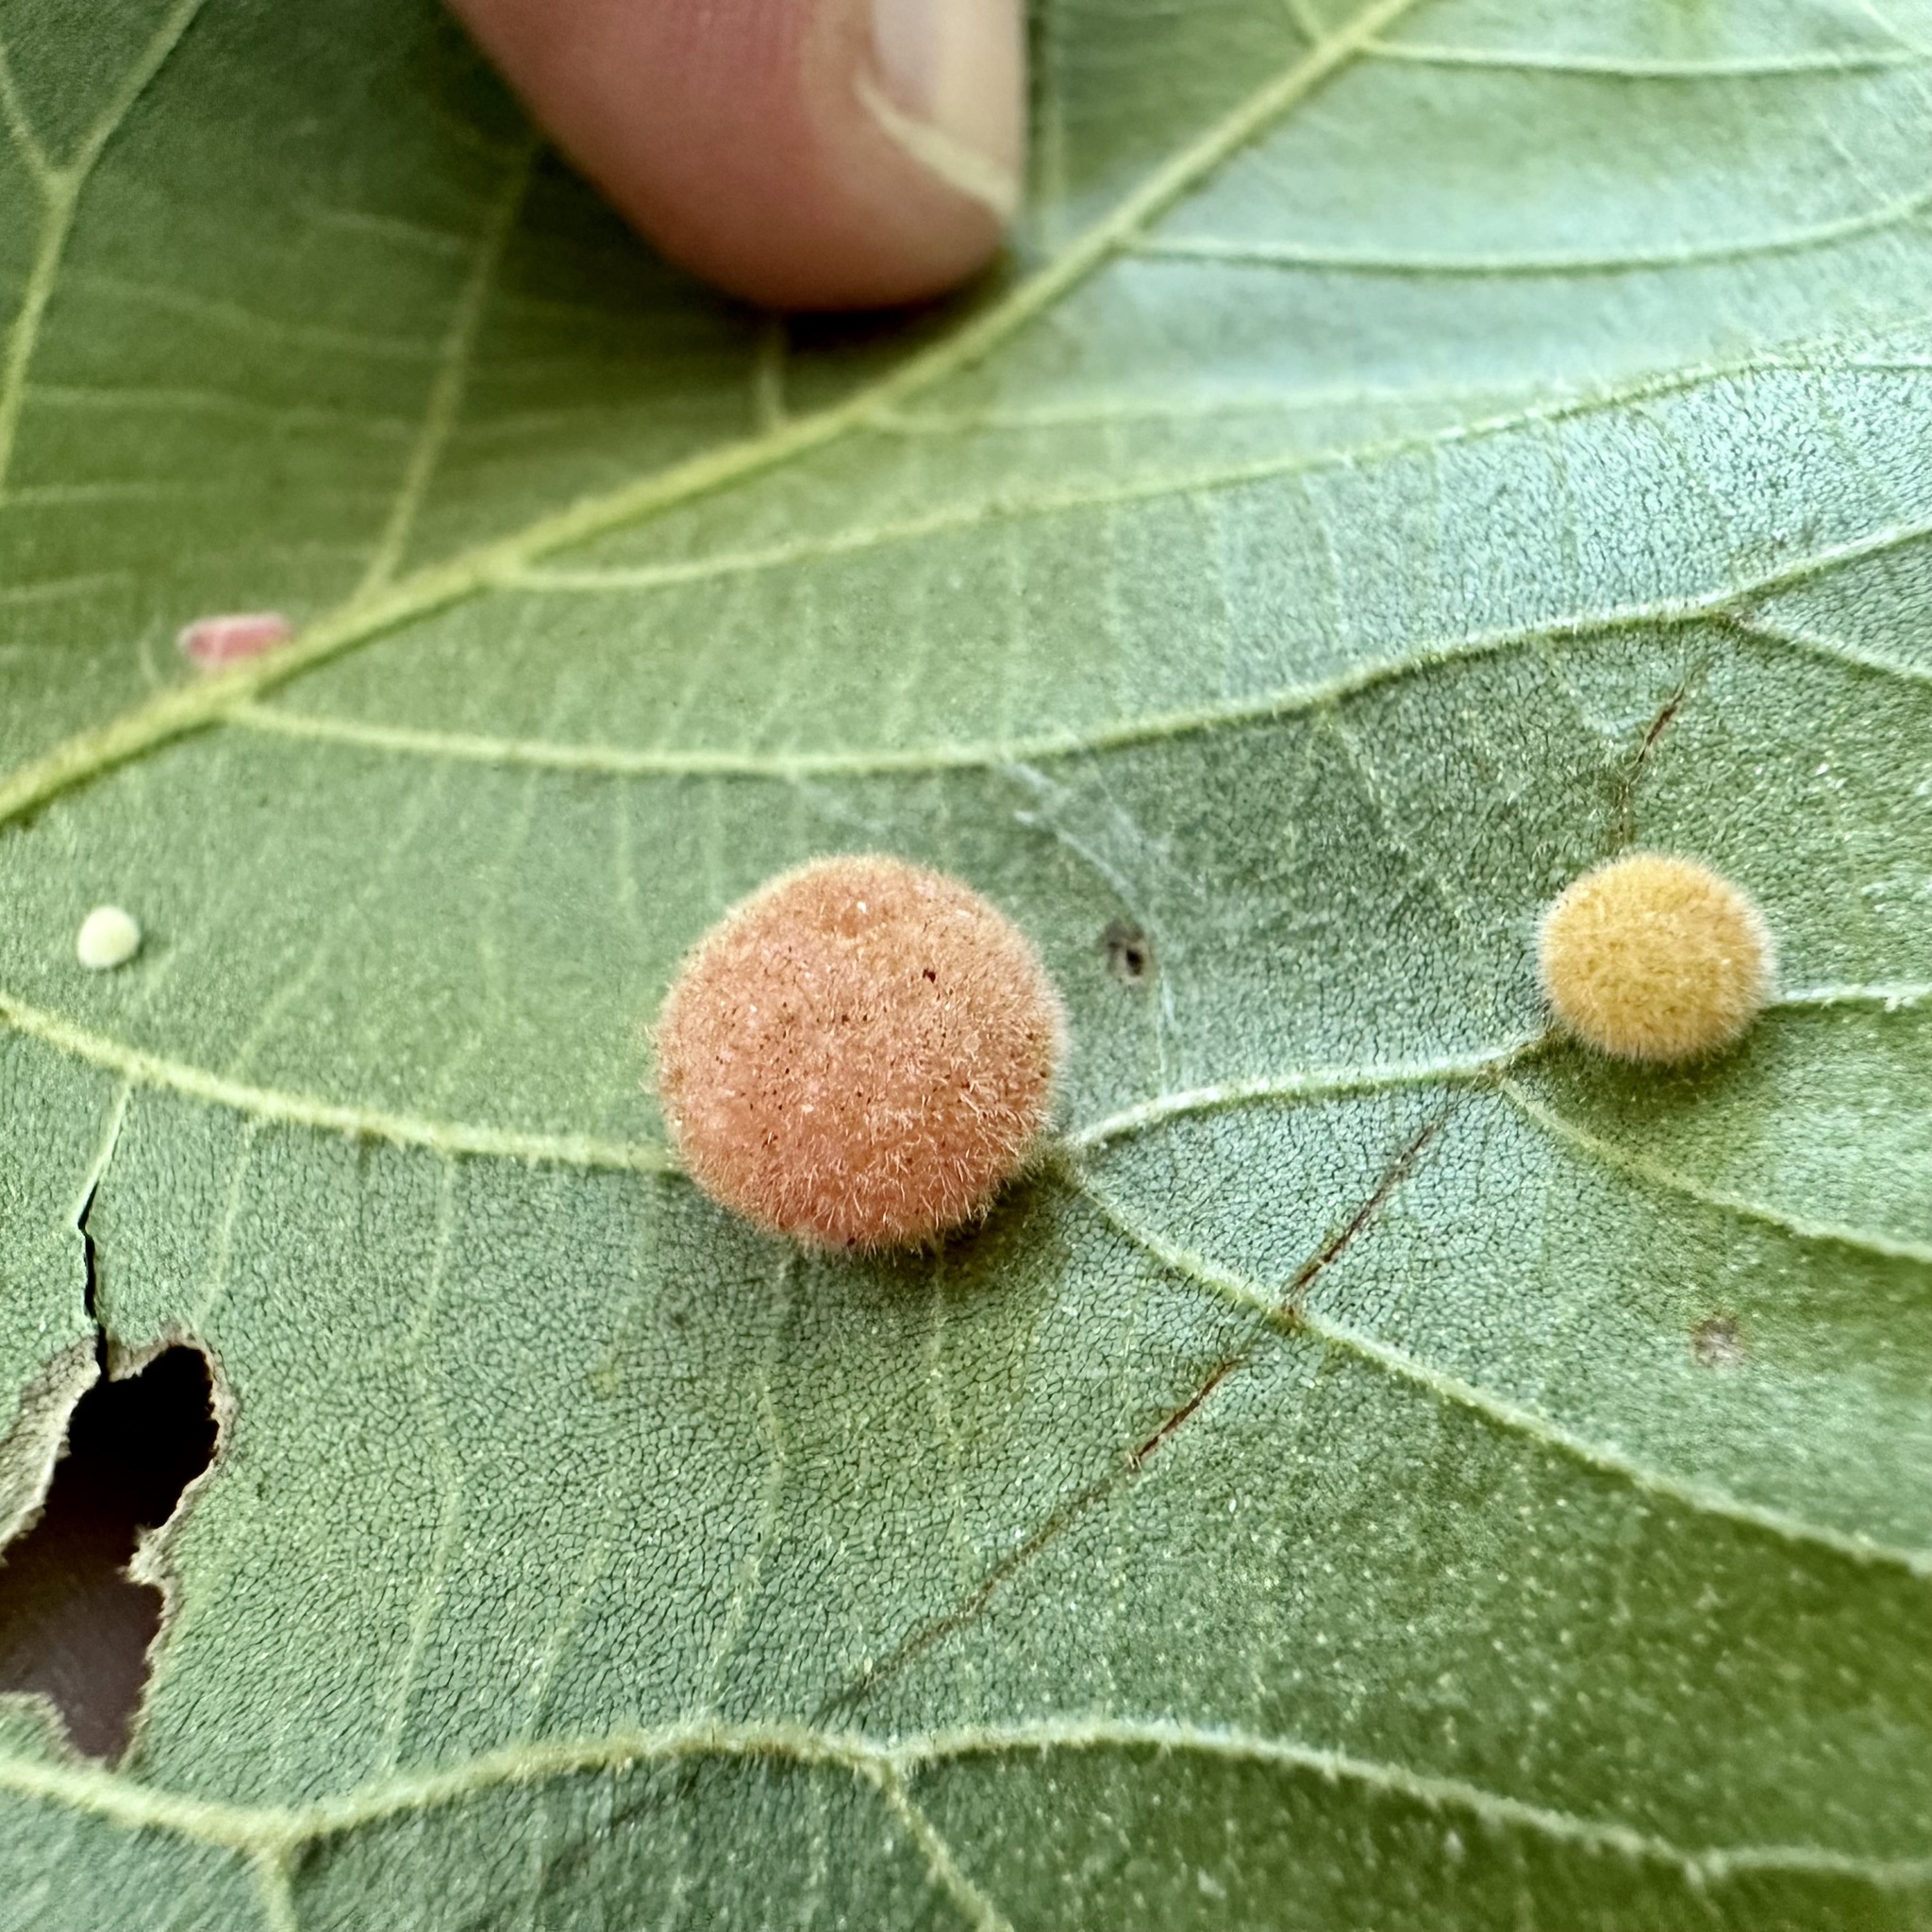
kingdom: Animalia
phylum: Arthropoda
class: Insecta
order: Diptera
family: Cecidomyiidae
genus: Caryomyia
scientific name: Caryomyia persicoides
